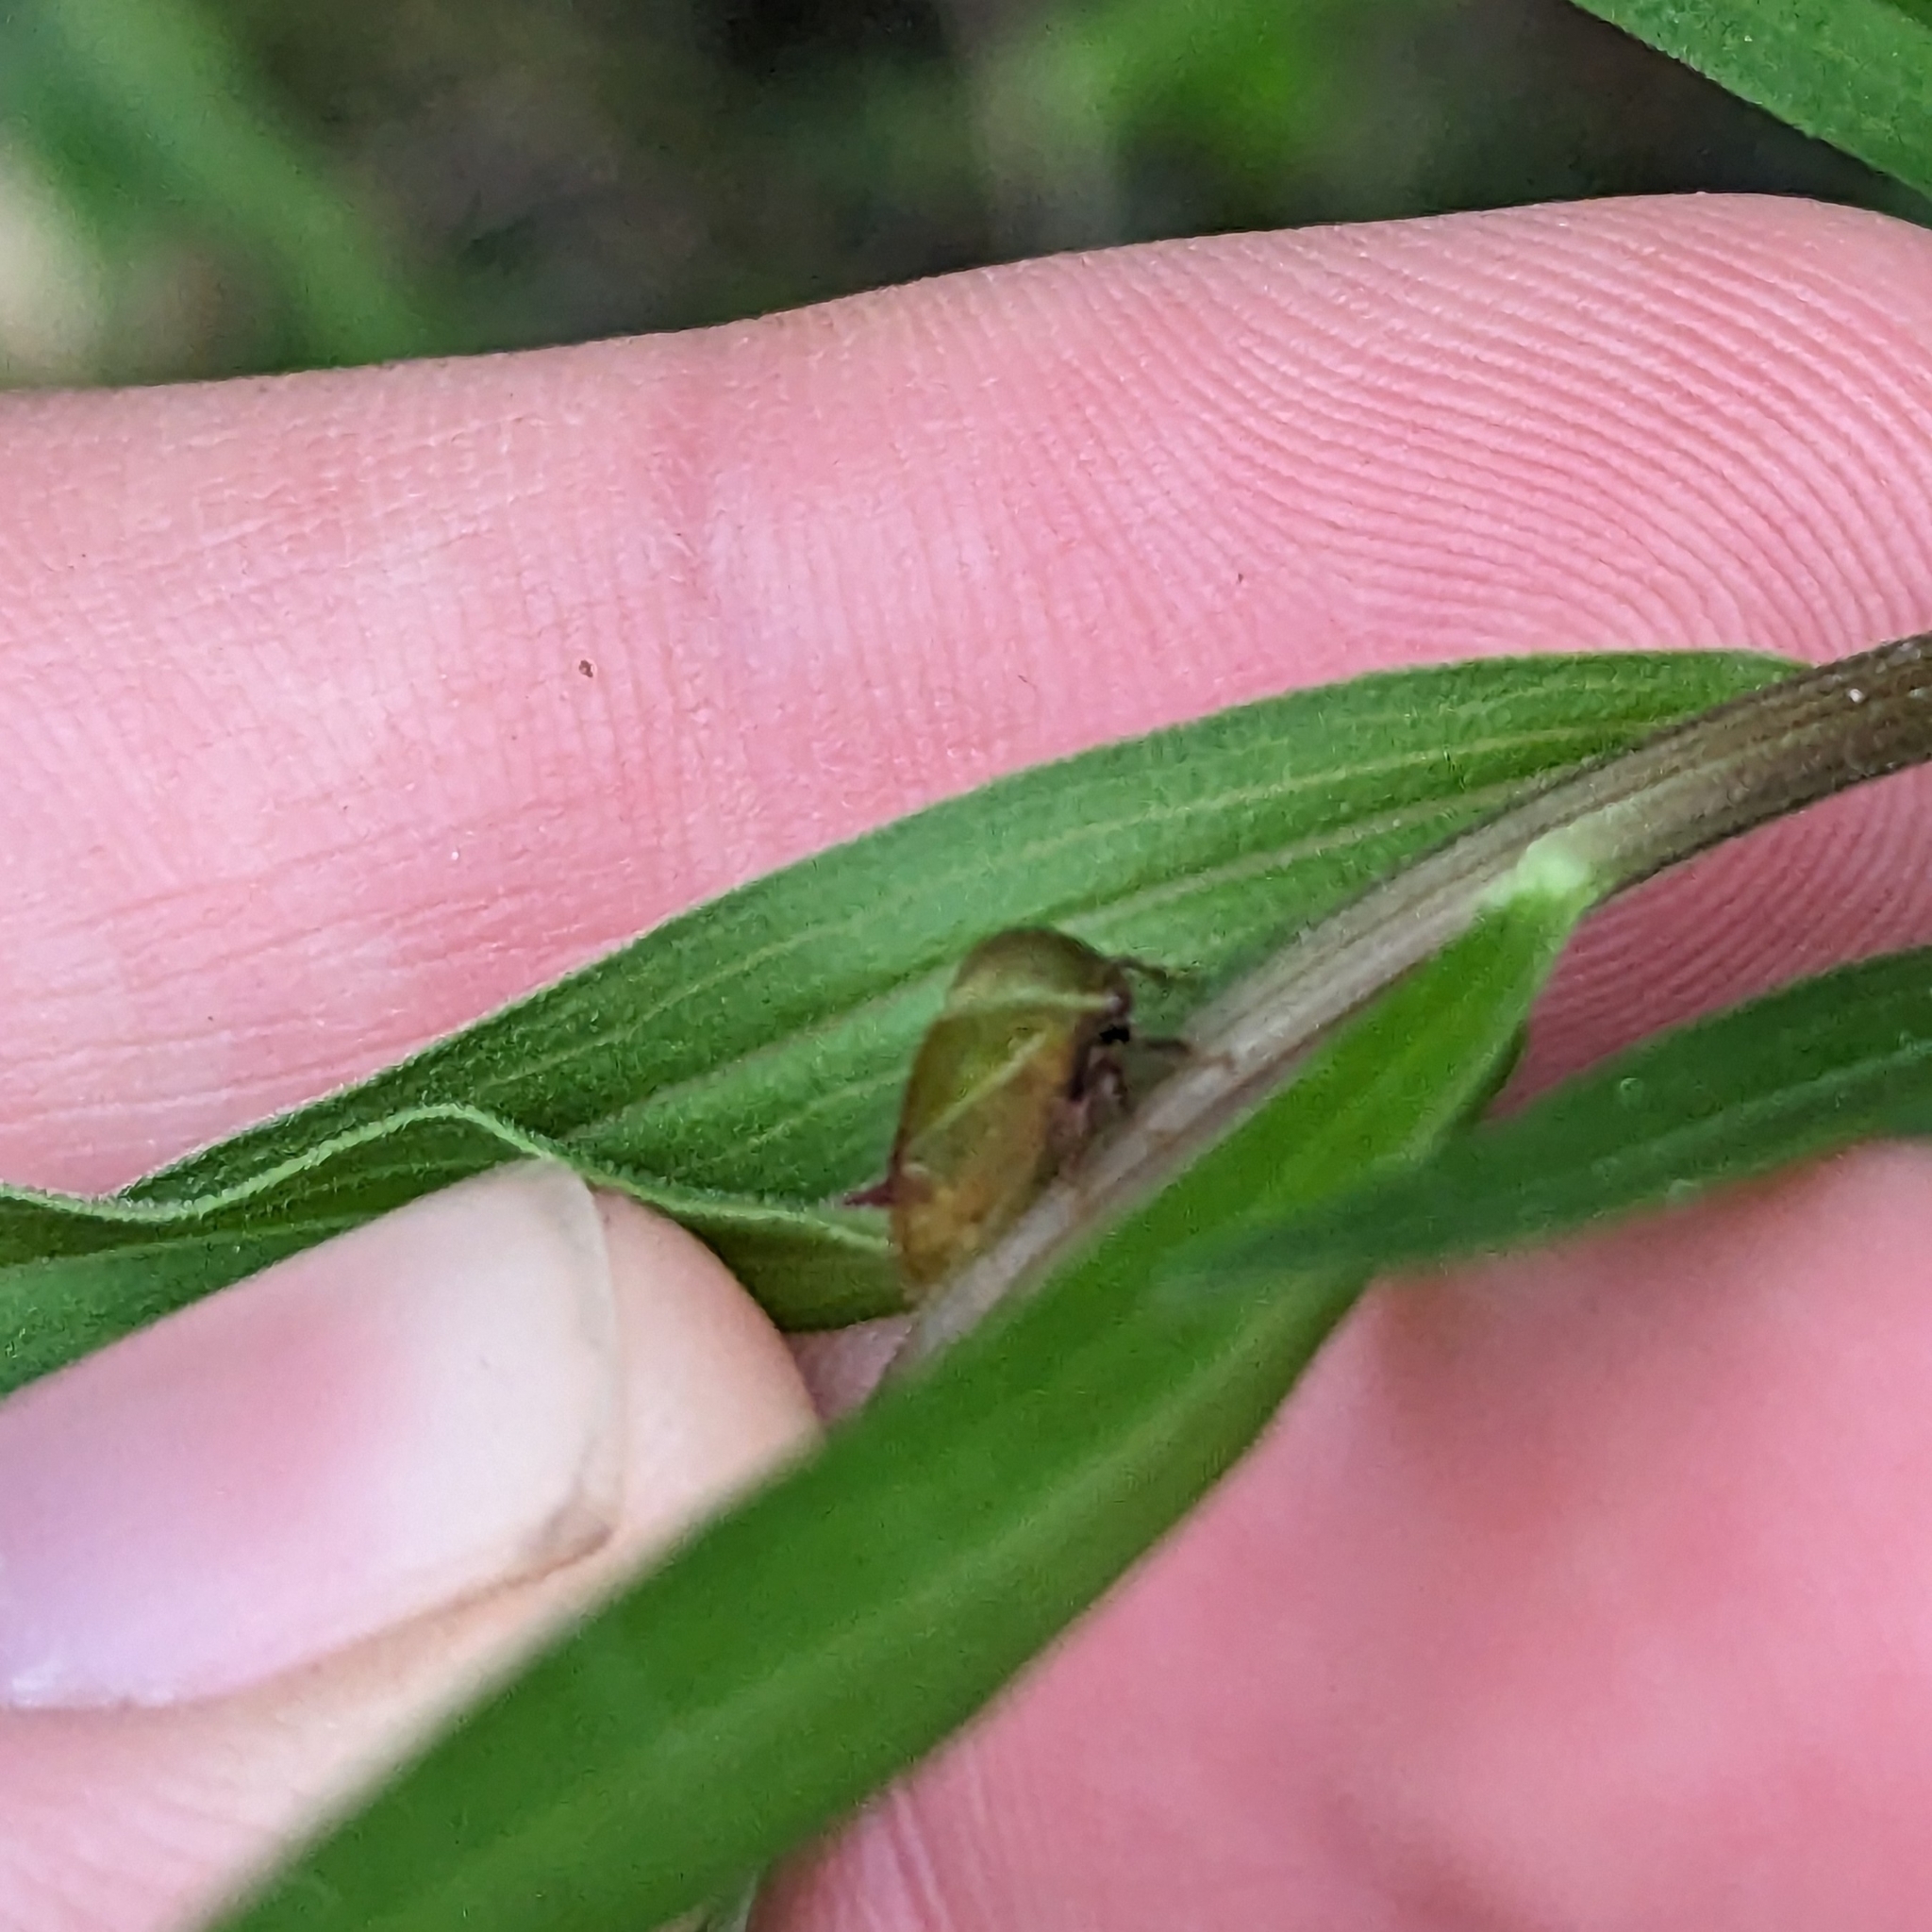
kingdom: Animalia
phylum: Arthropoda
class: Insecta
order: Hemiptera
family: Membracidae
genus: Stictocephala
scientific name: Stictocephala lutea
